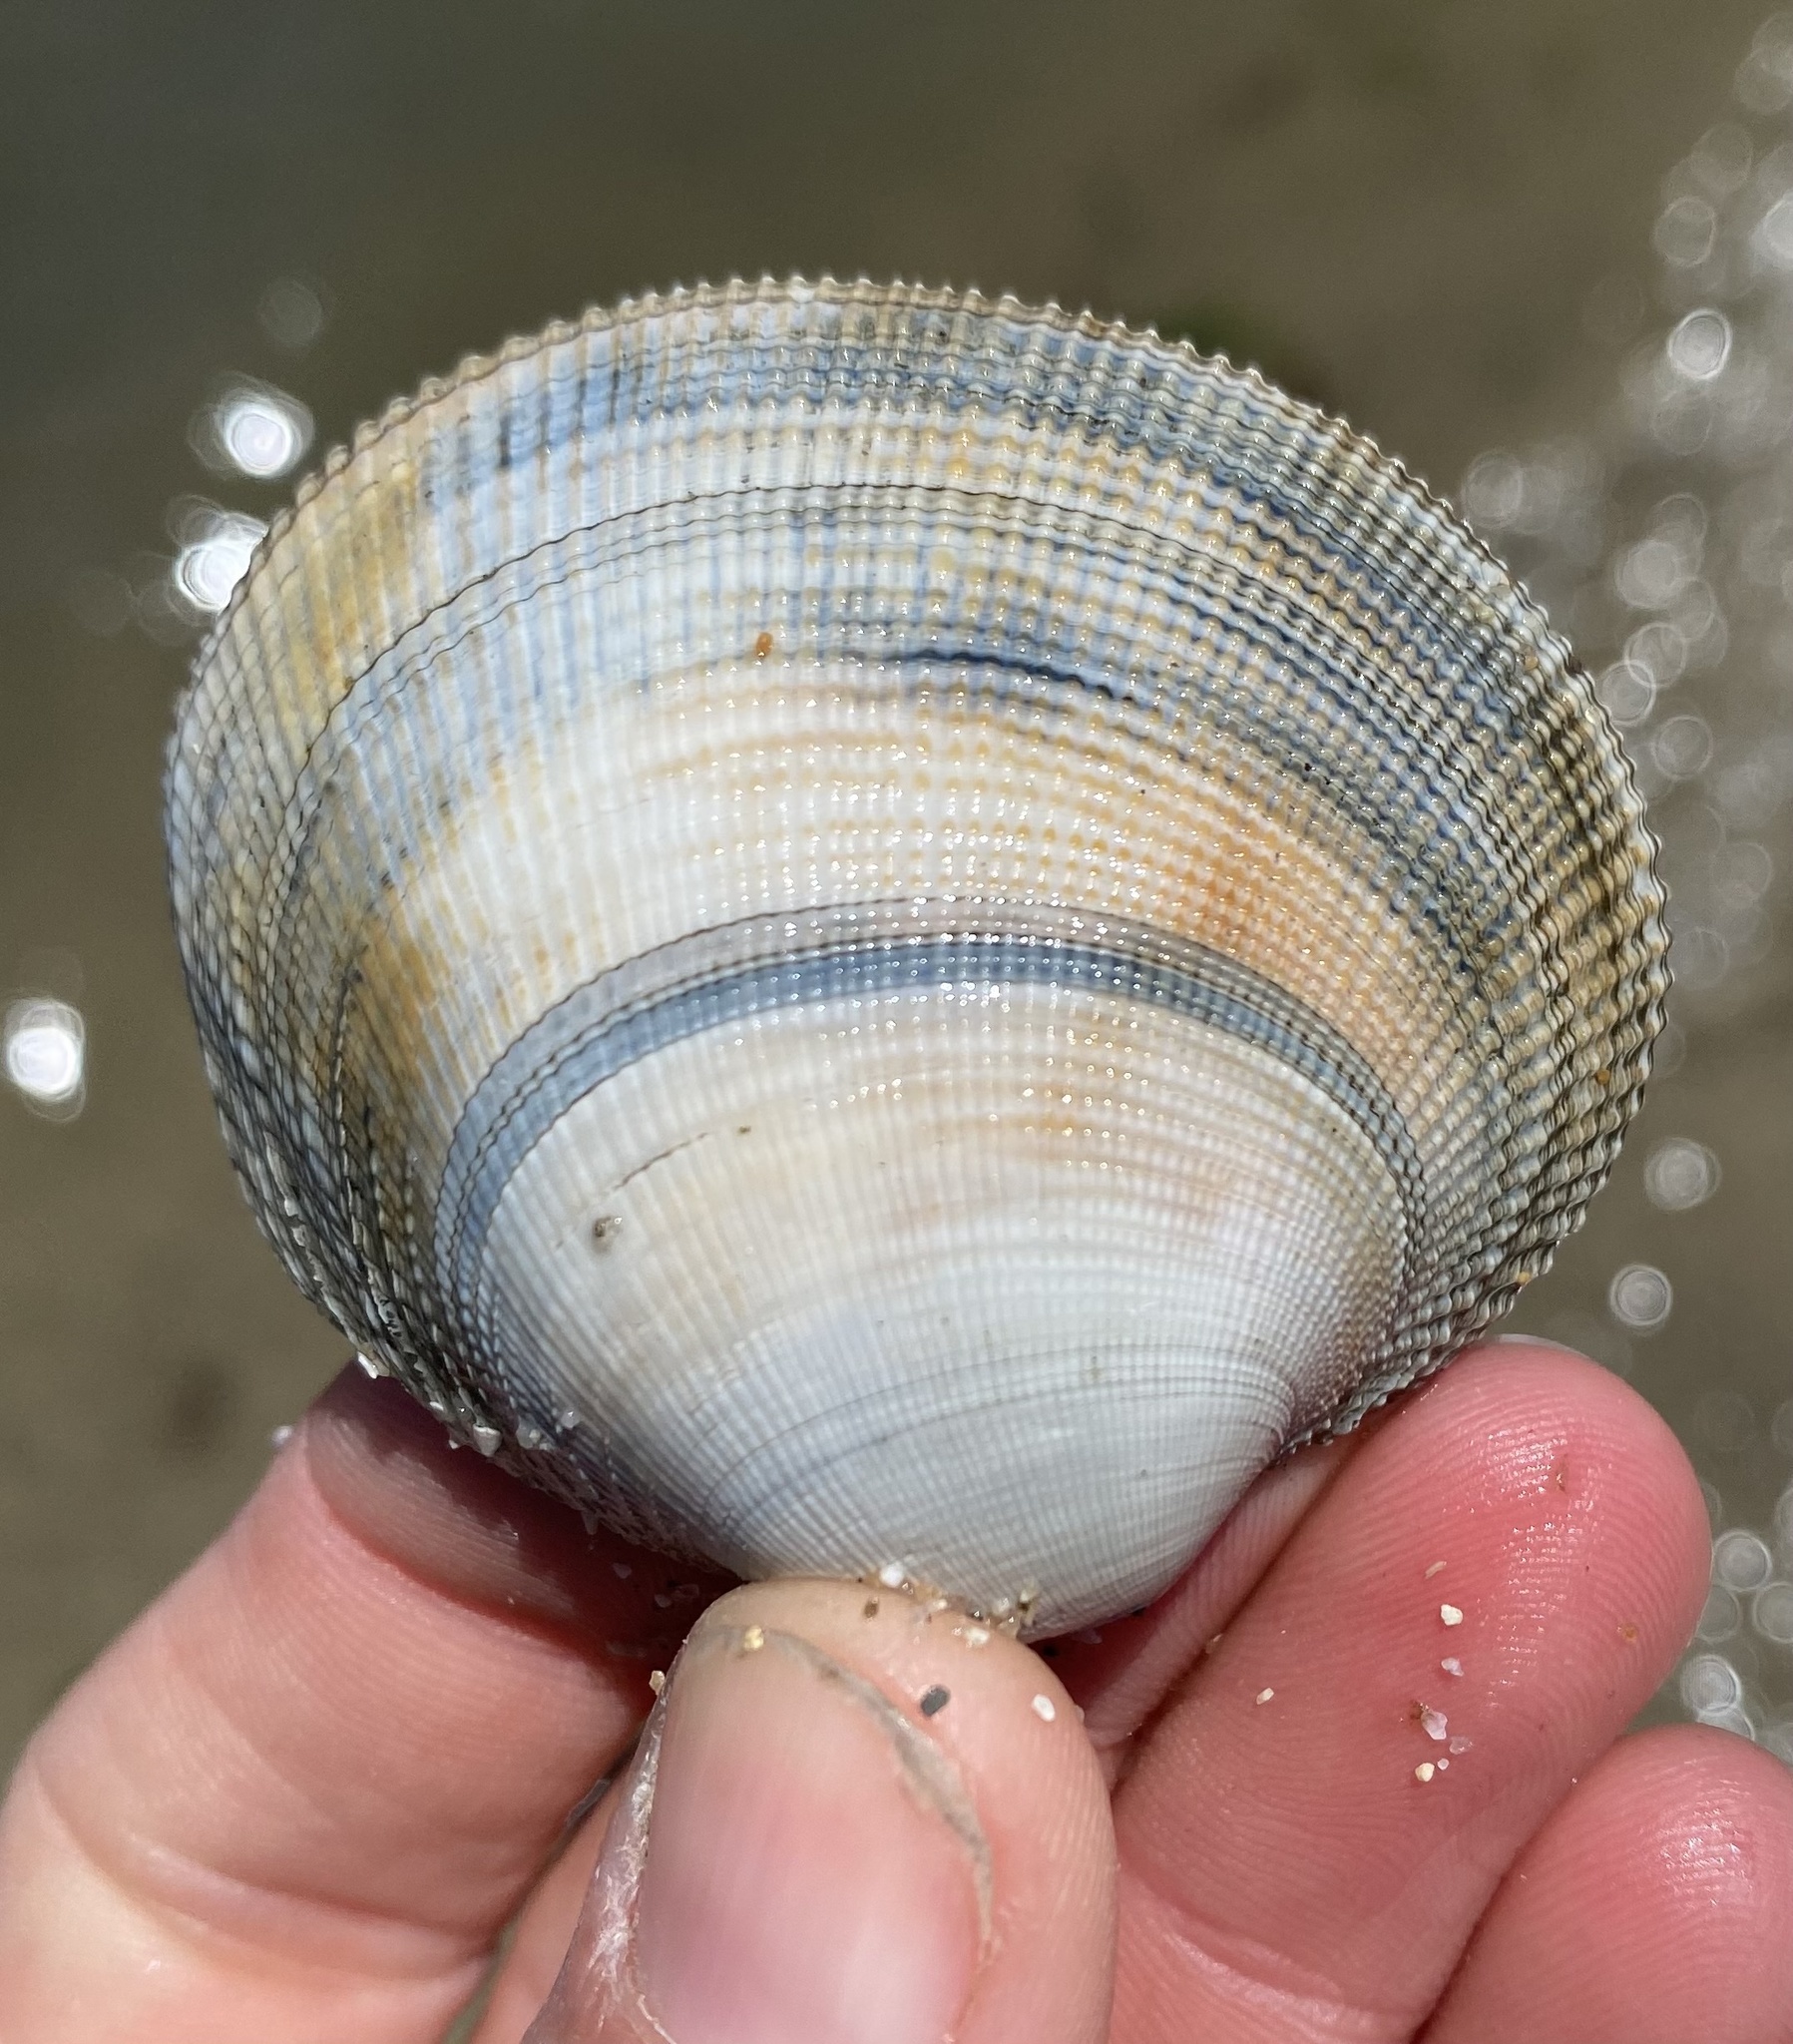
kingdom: Animalia
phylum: Mollusca
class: Bivalvia
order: Venerida
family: Veneridae
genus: Leukoma
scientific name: Leukoma staminea
